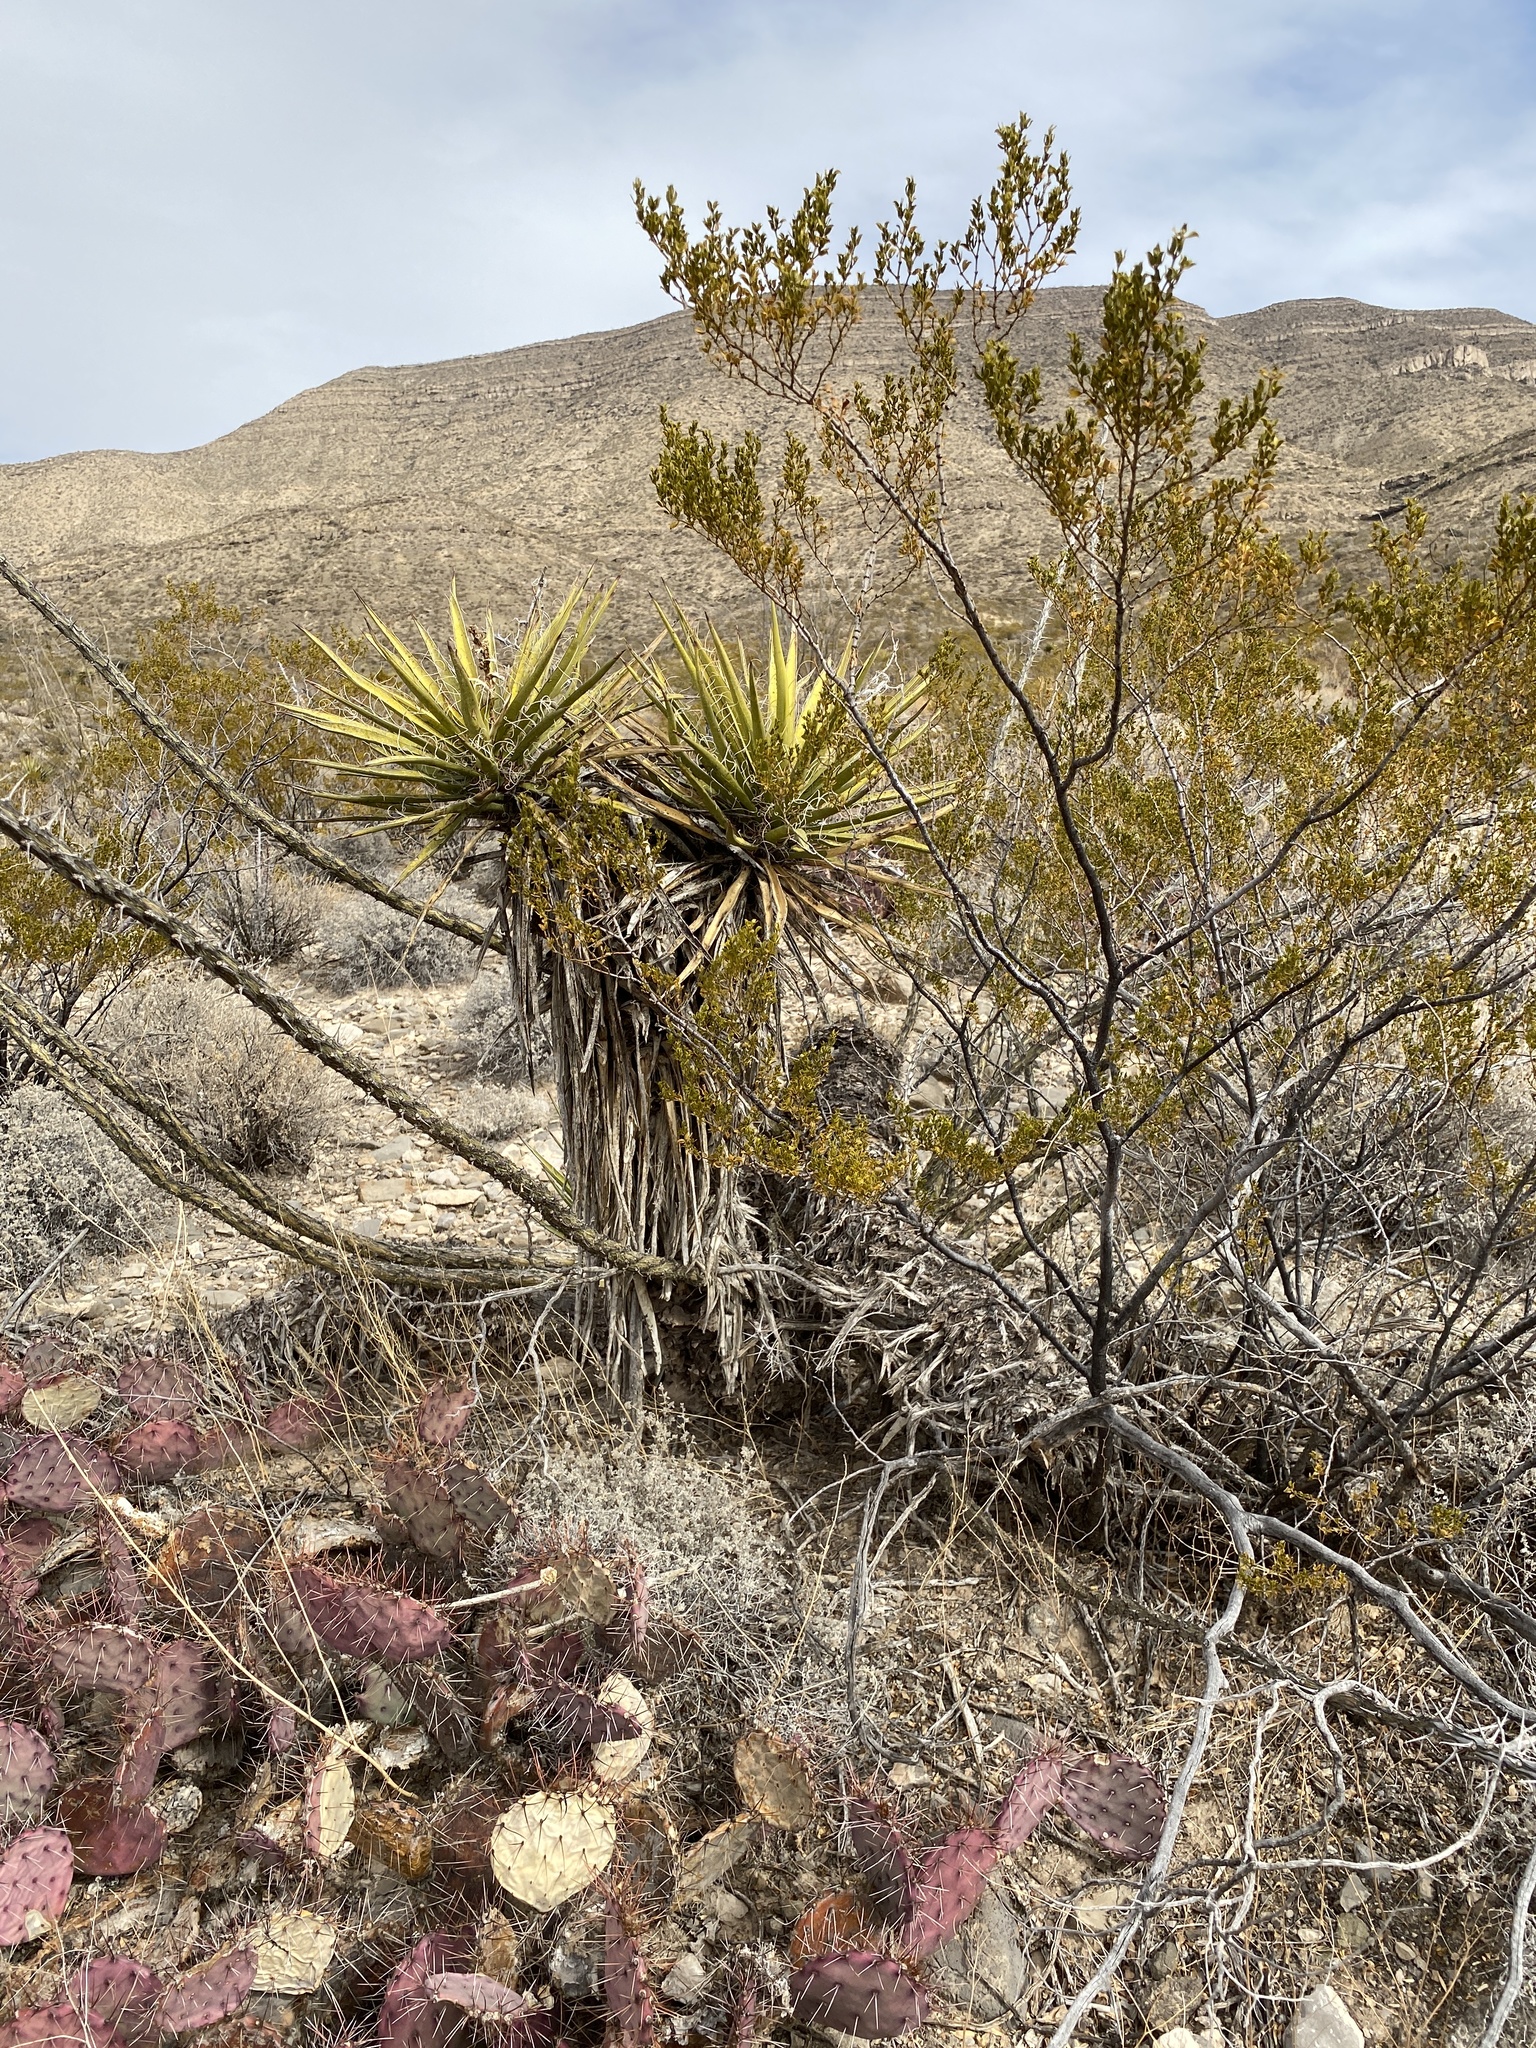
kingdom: Plantae
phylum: Tracheophyta
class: Liliopsida
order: Asparagales
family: Asparagaceae
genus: Yucca
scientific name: Yucca treculiana
